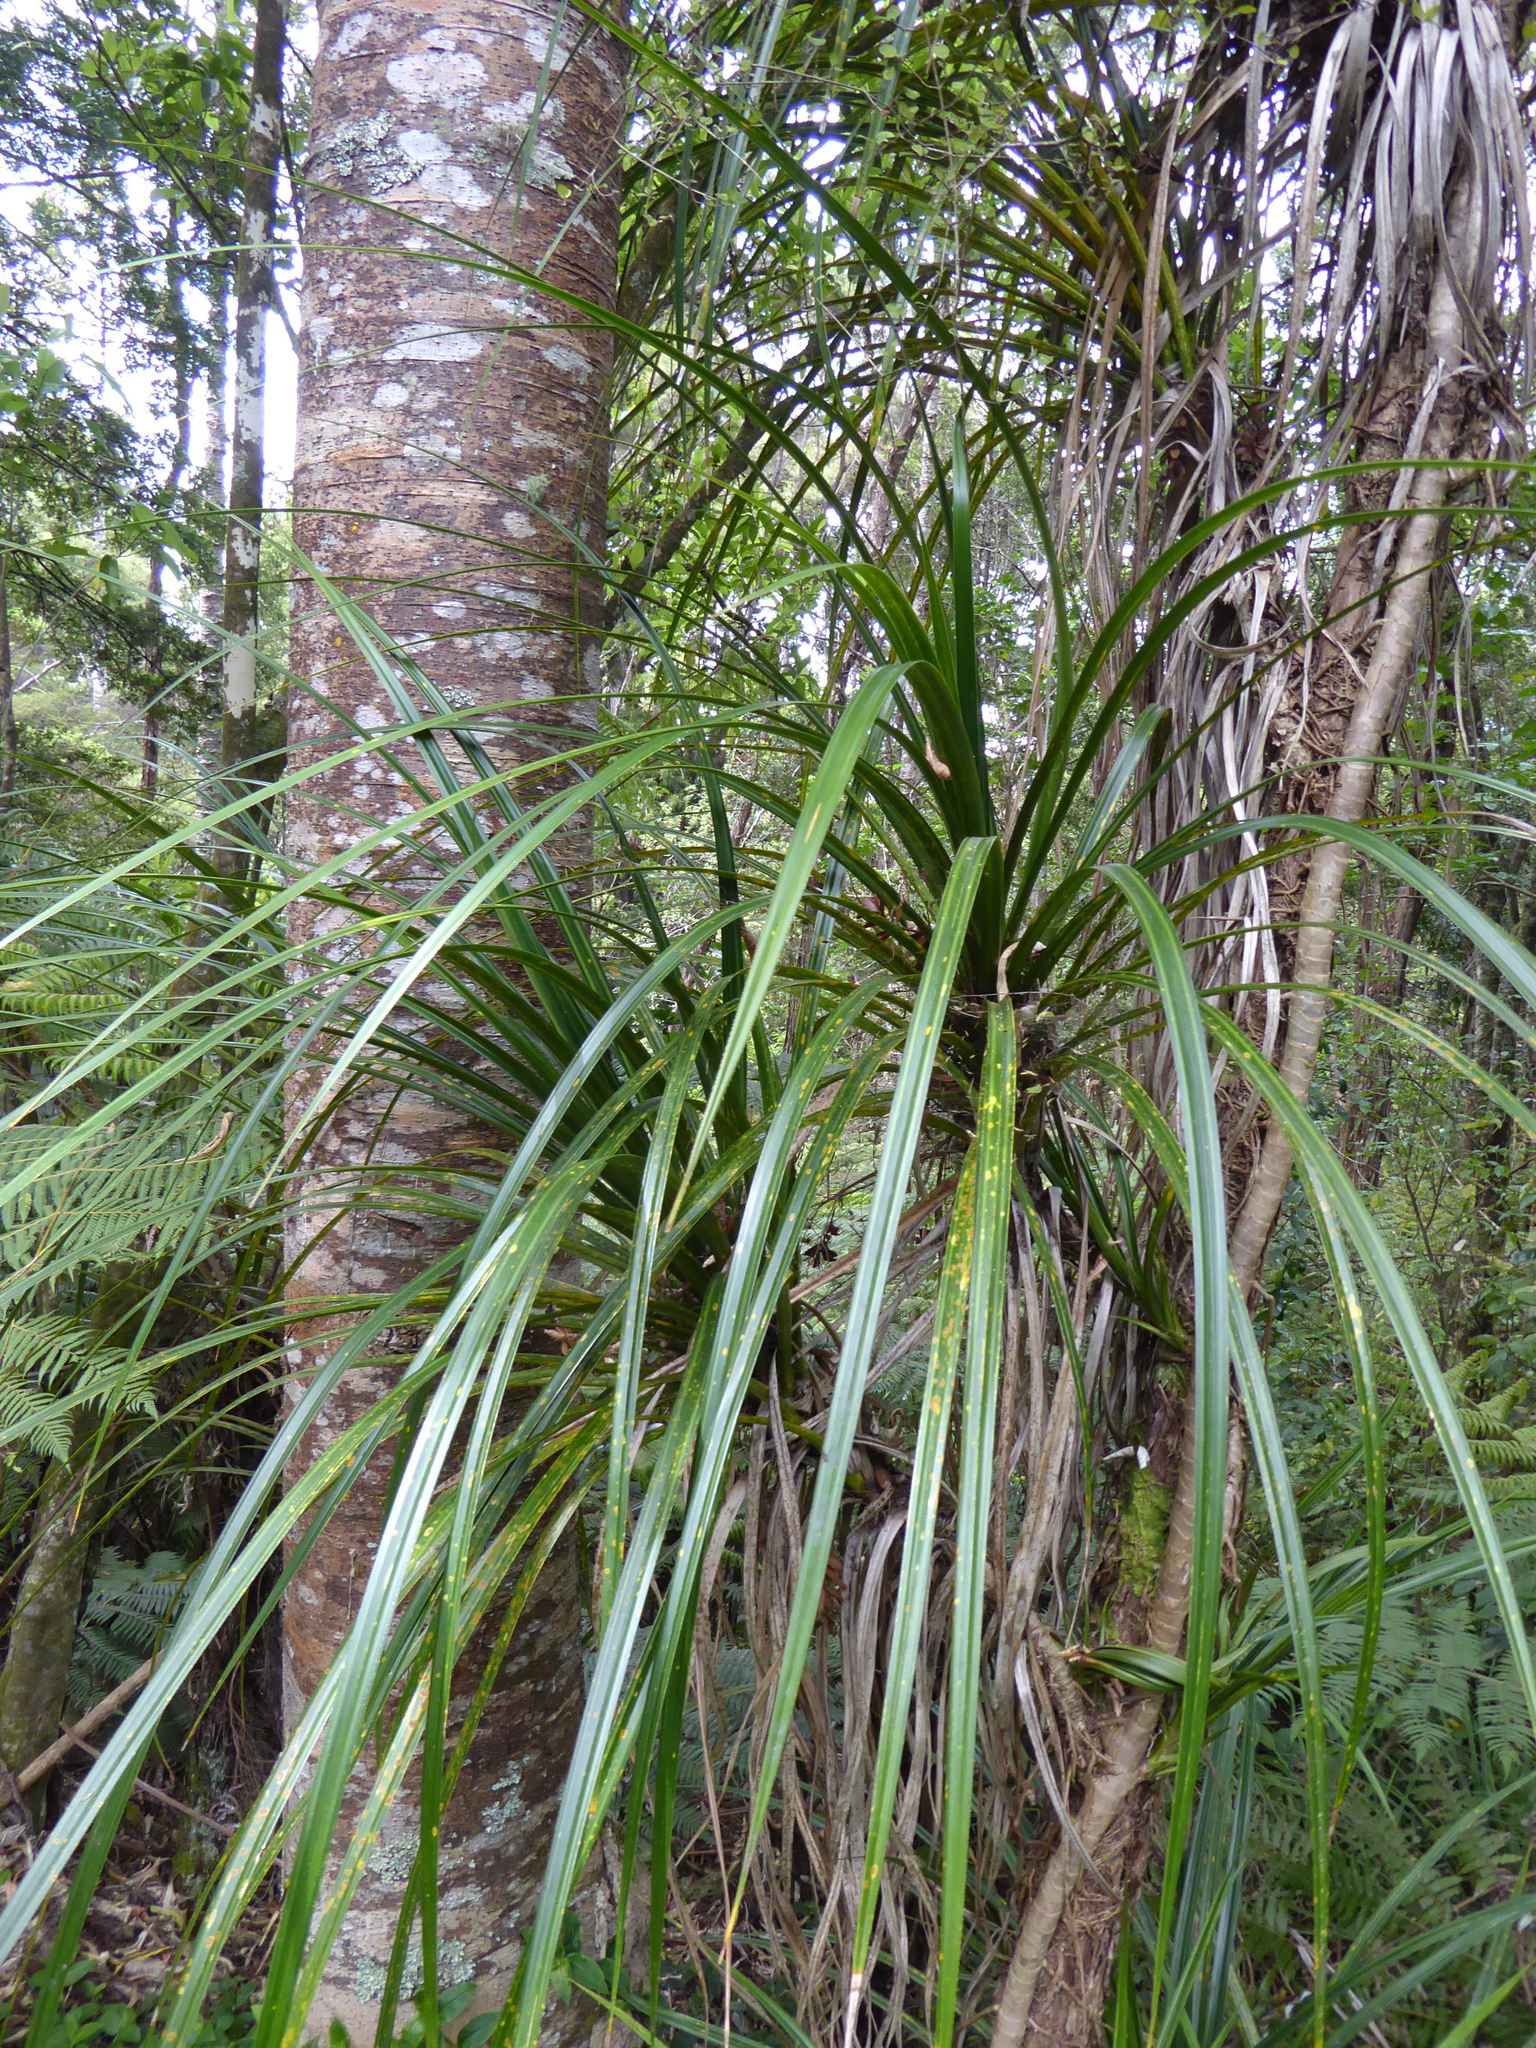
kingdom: Plantae
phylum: Tracheophyta
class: Liliopsida
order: Pandanales
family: Pandanaceae
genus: Freycinetia
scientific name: Freycinetia banksii
